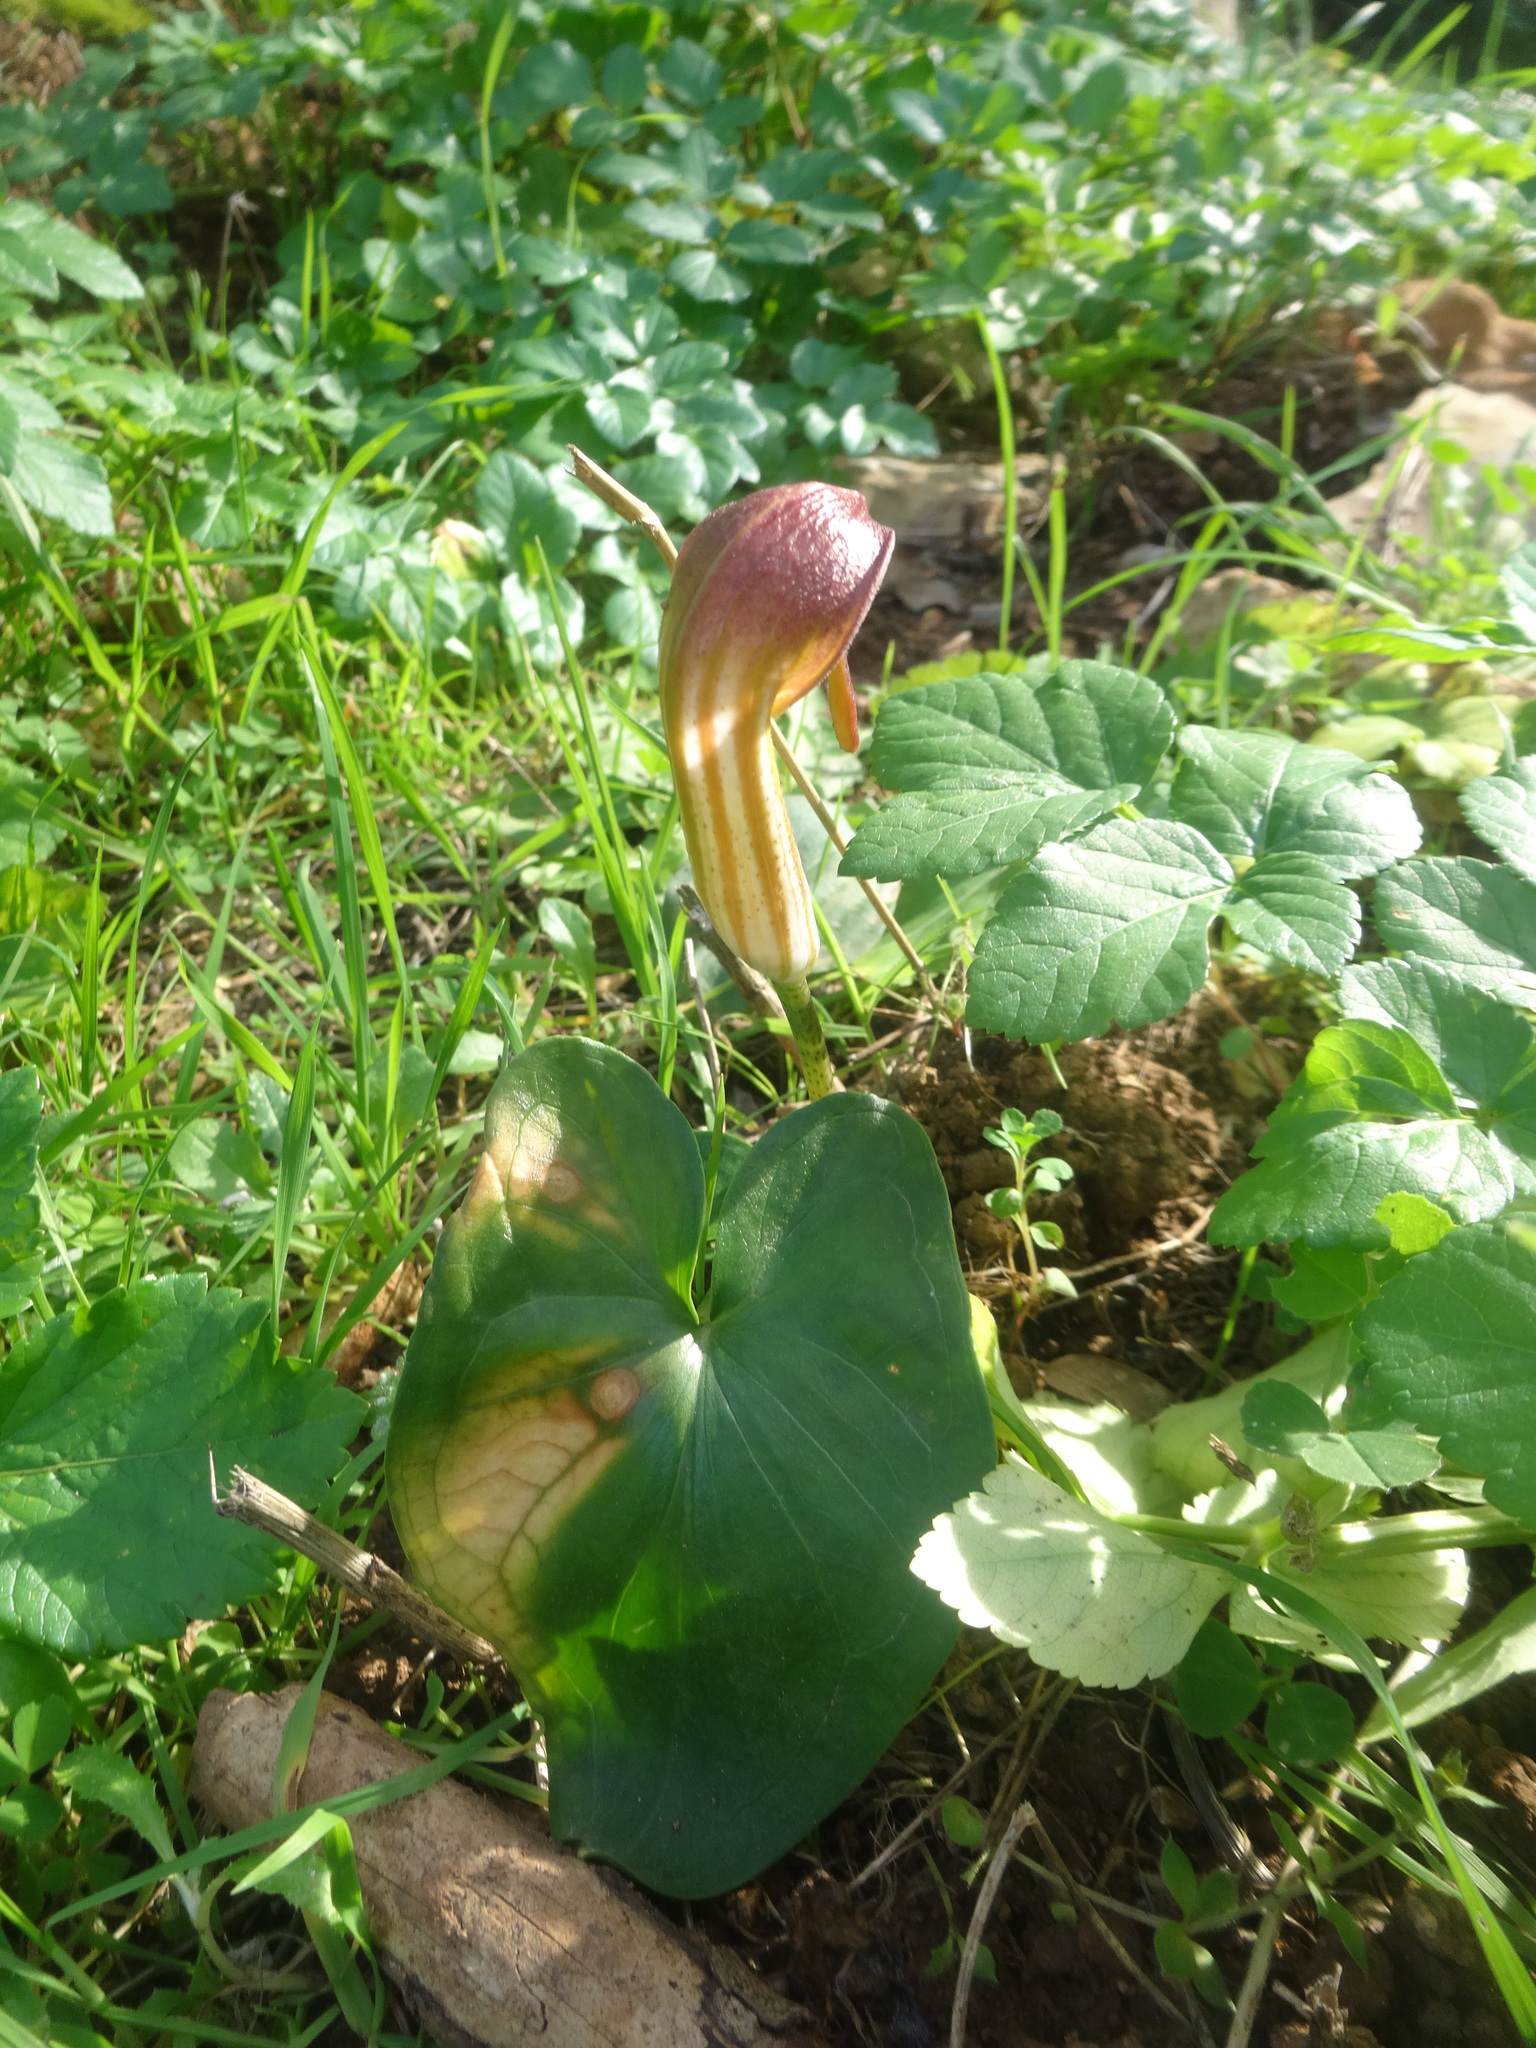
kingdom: Plantae
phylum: Tracheophyta
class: Liliopsida
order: Alismatales
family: Araceae
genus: Arisarum
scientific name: Arisarum vulgare
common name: Common arisarum
